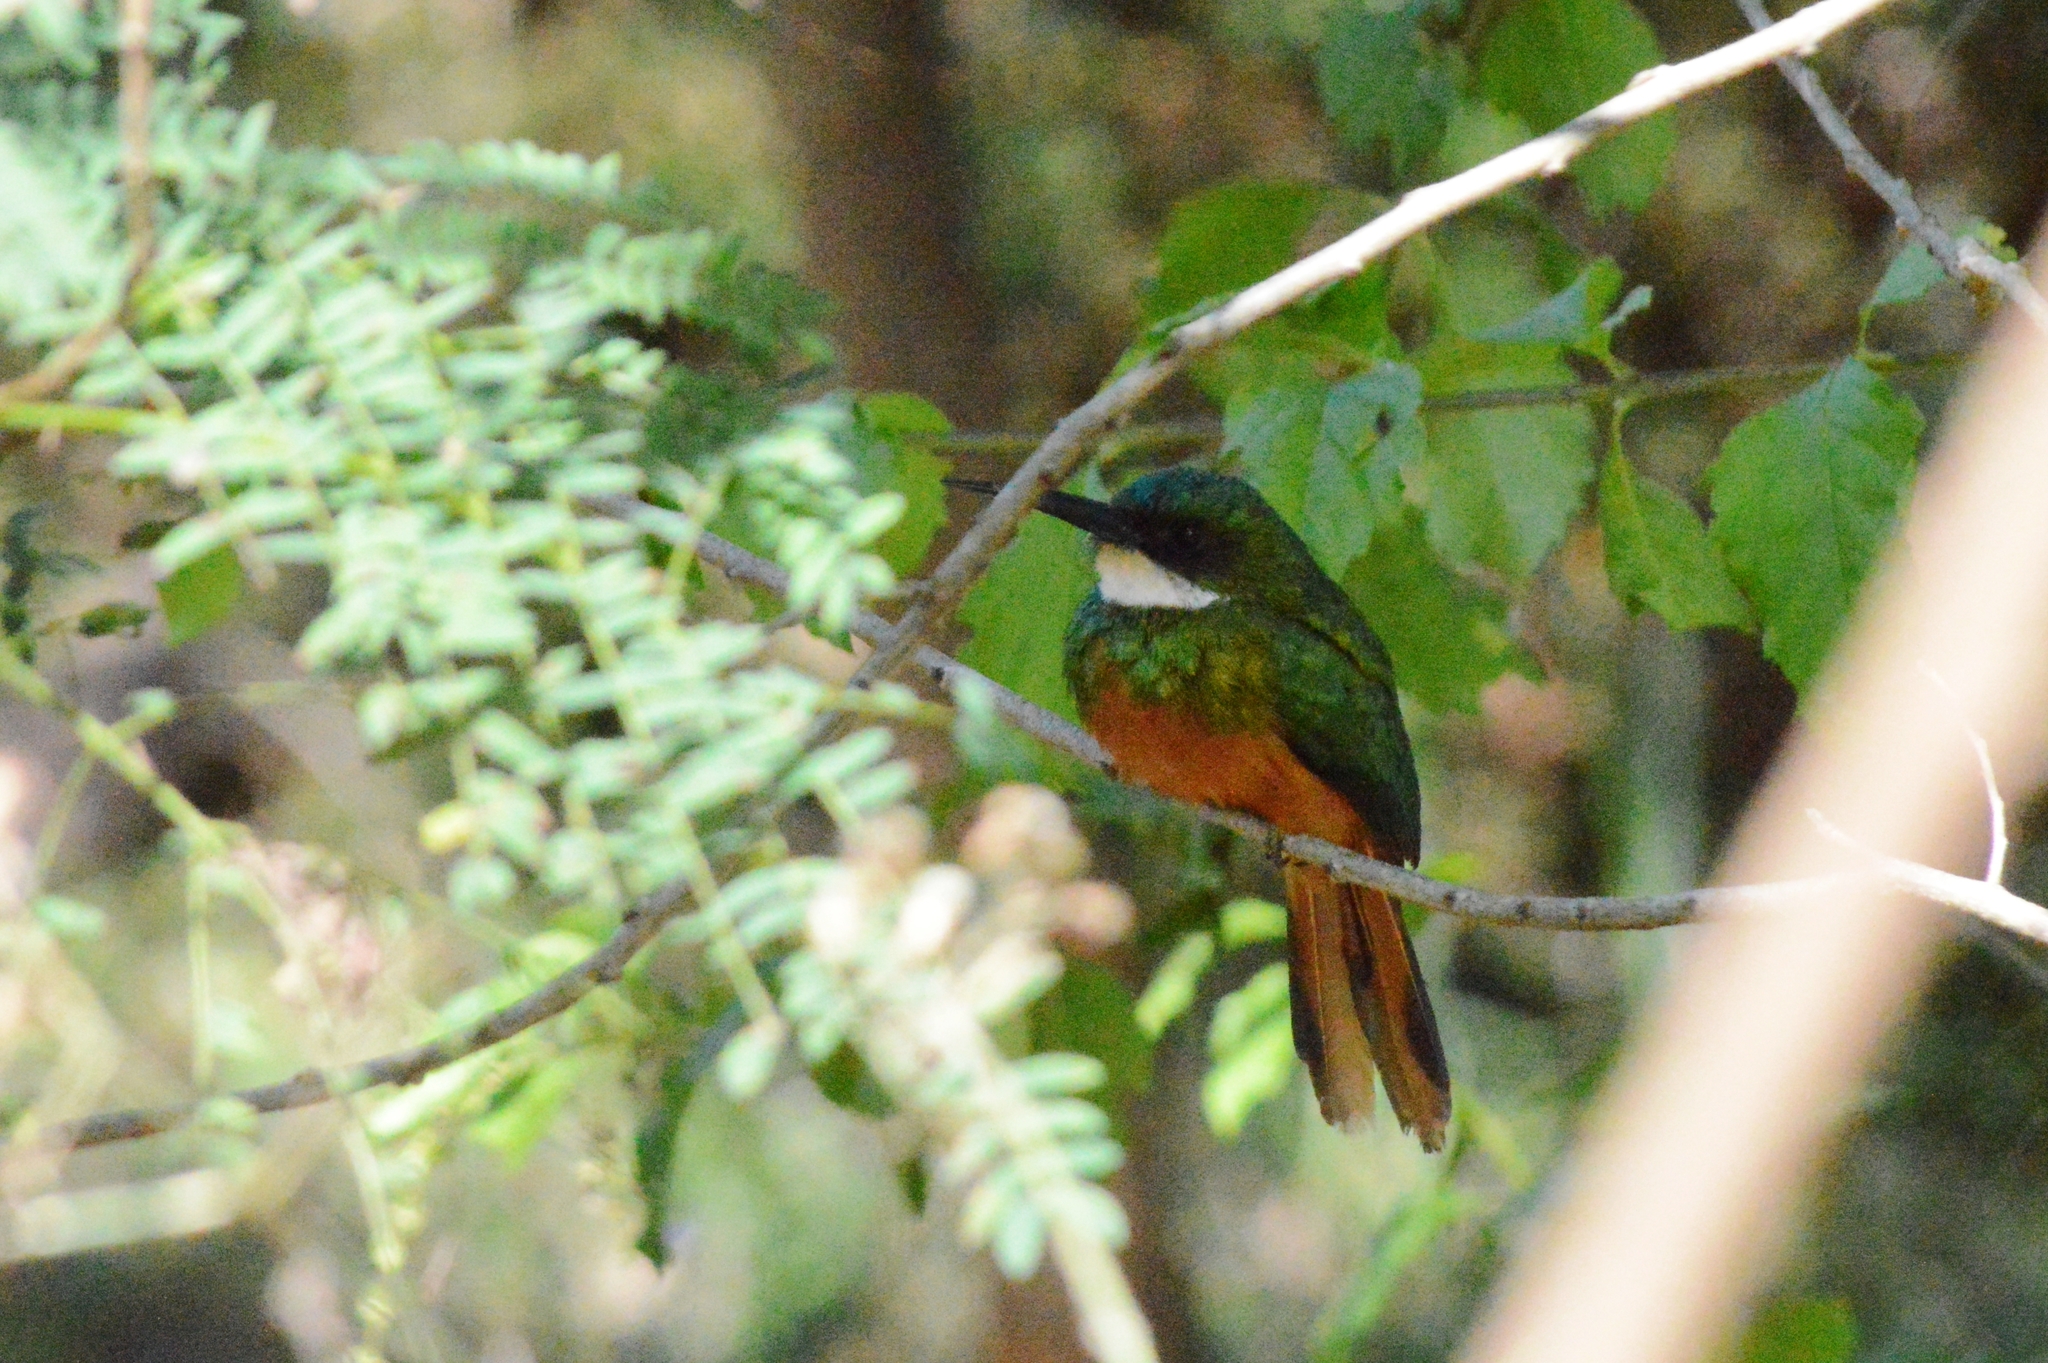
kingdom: Animalia
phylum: Chordata
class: Aves
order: Piciformes
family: Galbulidae
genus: Galbula
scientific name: Galbula ruficauda
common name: Rufous-tailed jacamar
